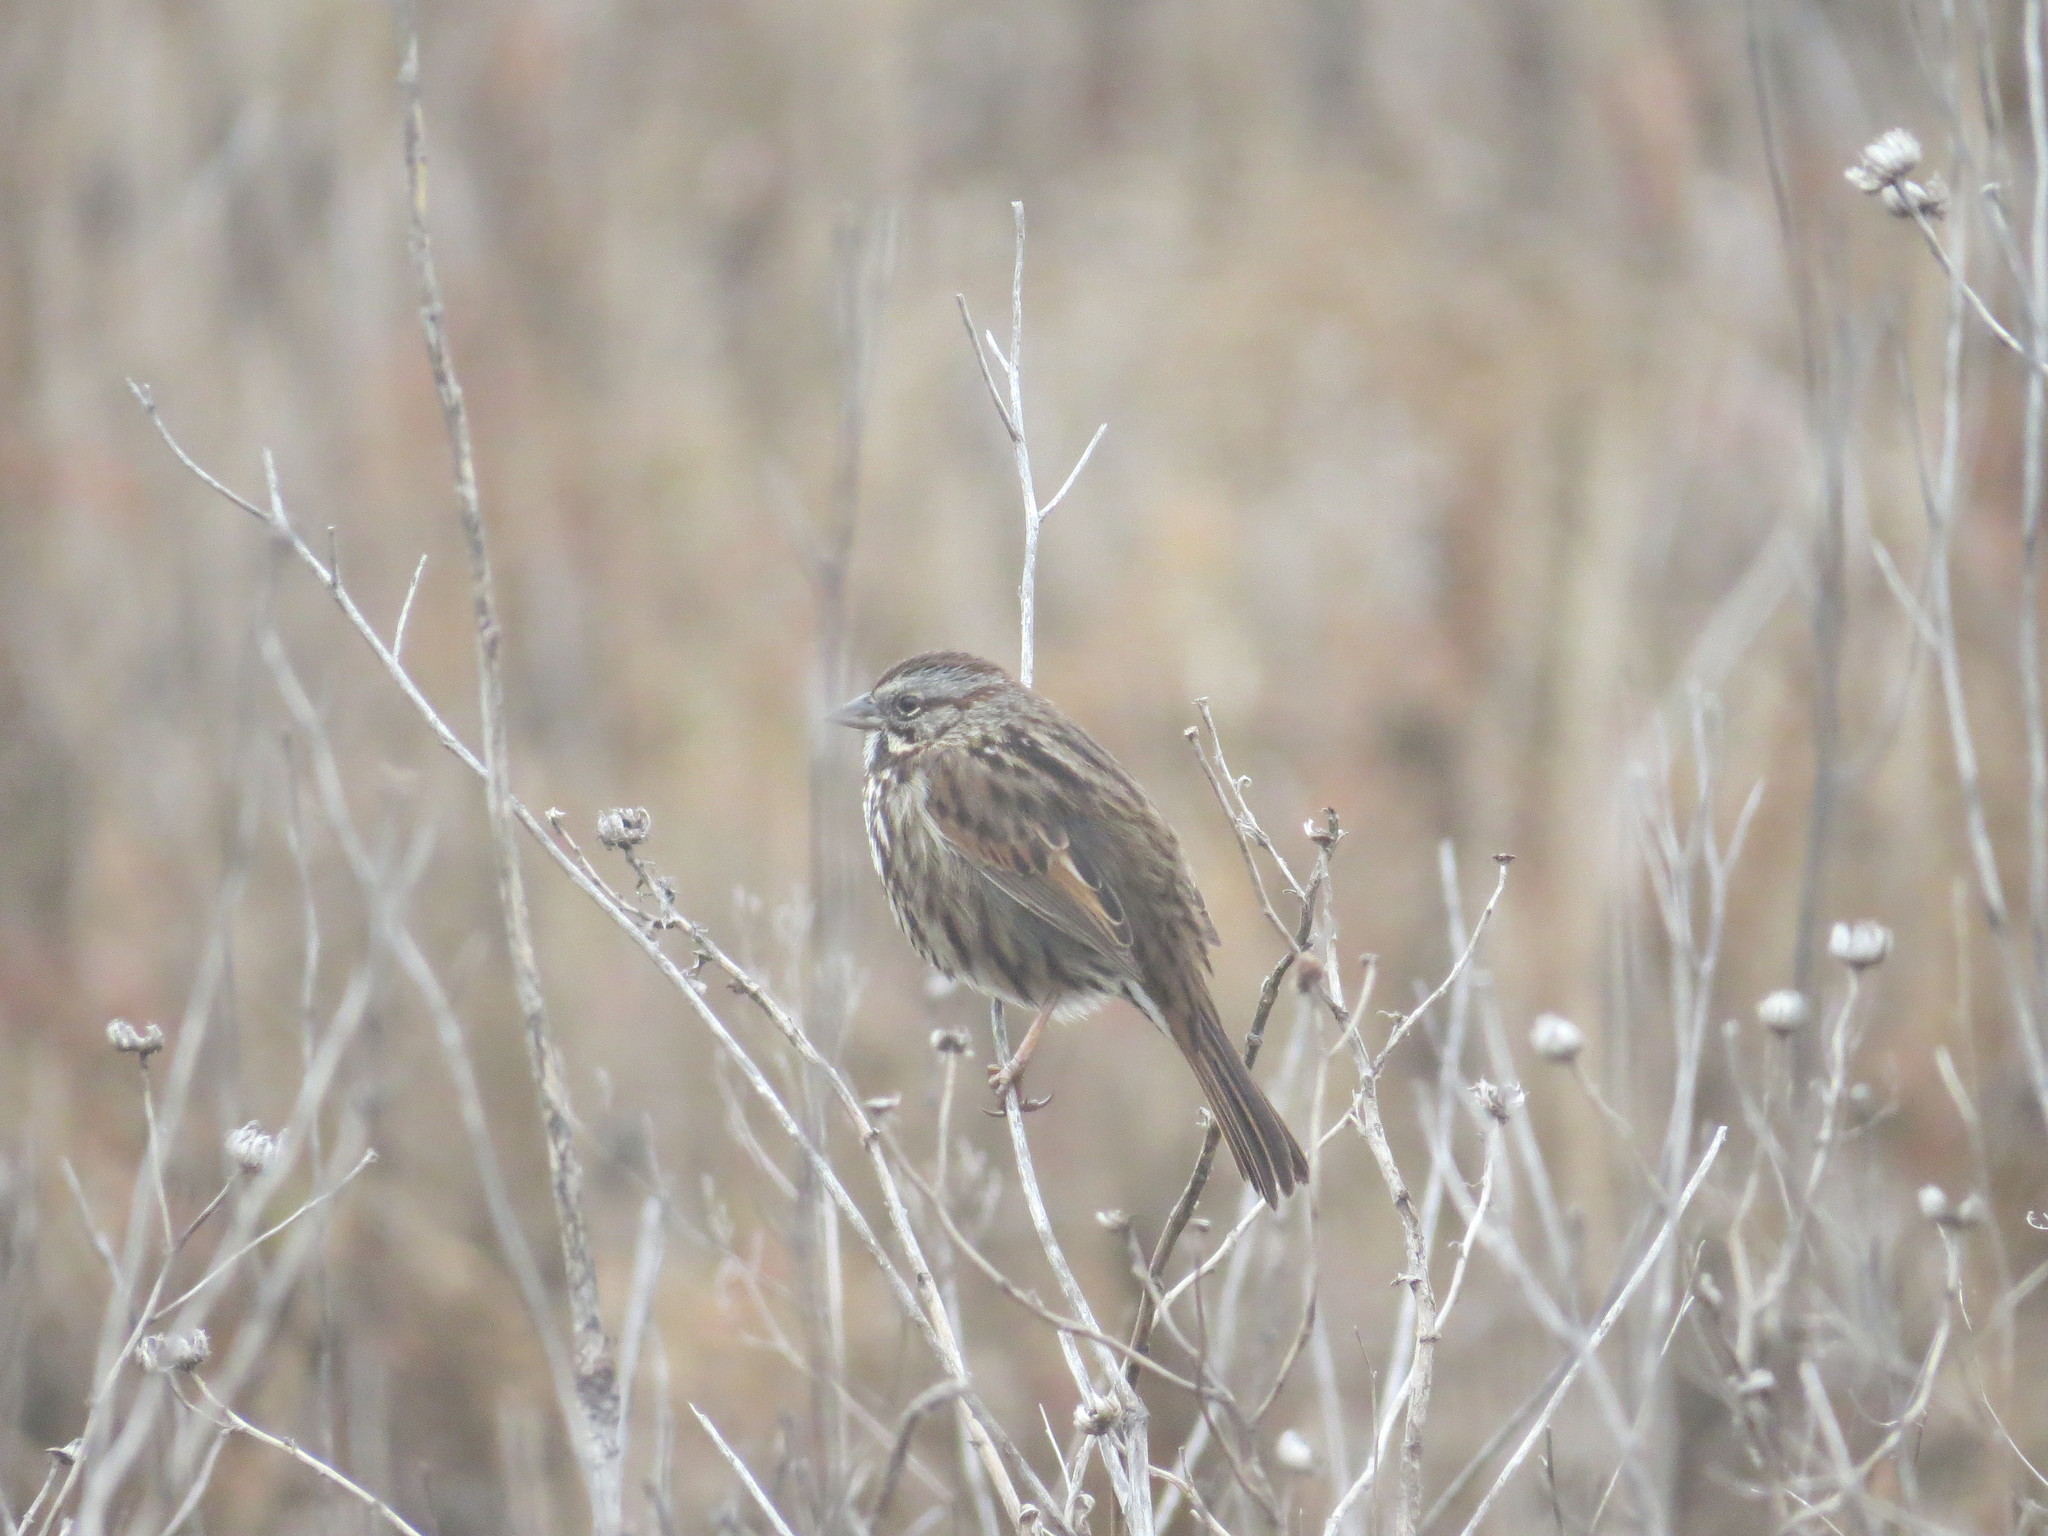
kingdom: Animalia
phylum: Chordata
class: Aves
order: Passeriformes
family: Passerellidae
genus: Melospiza
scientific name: Melospiza melodia
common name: Song sparrow
